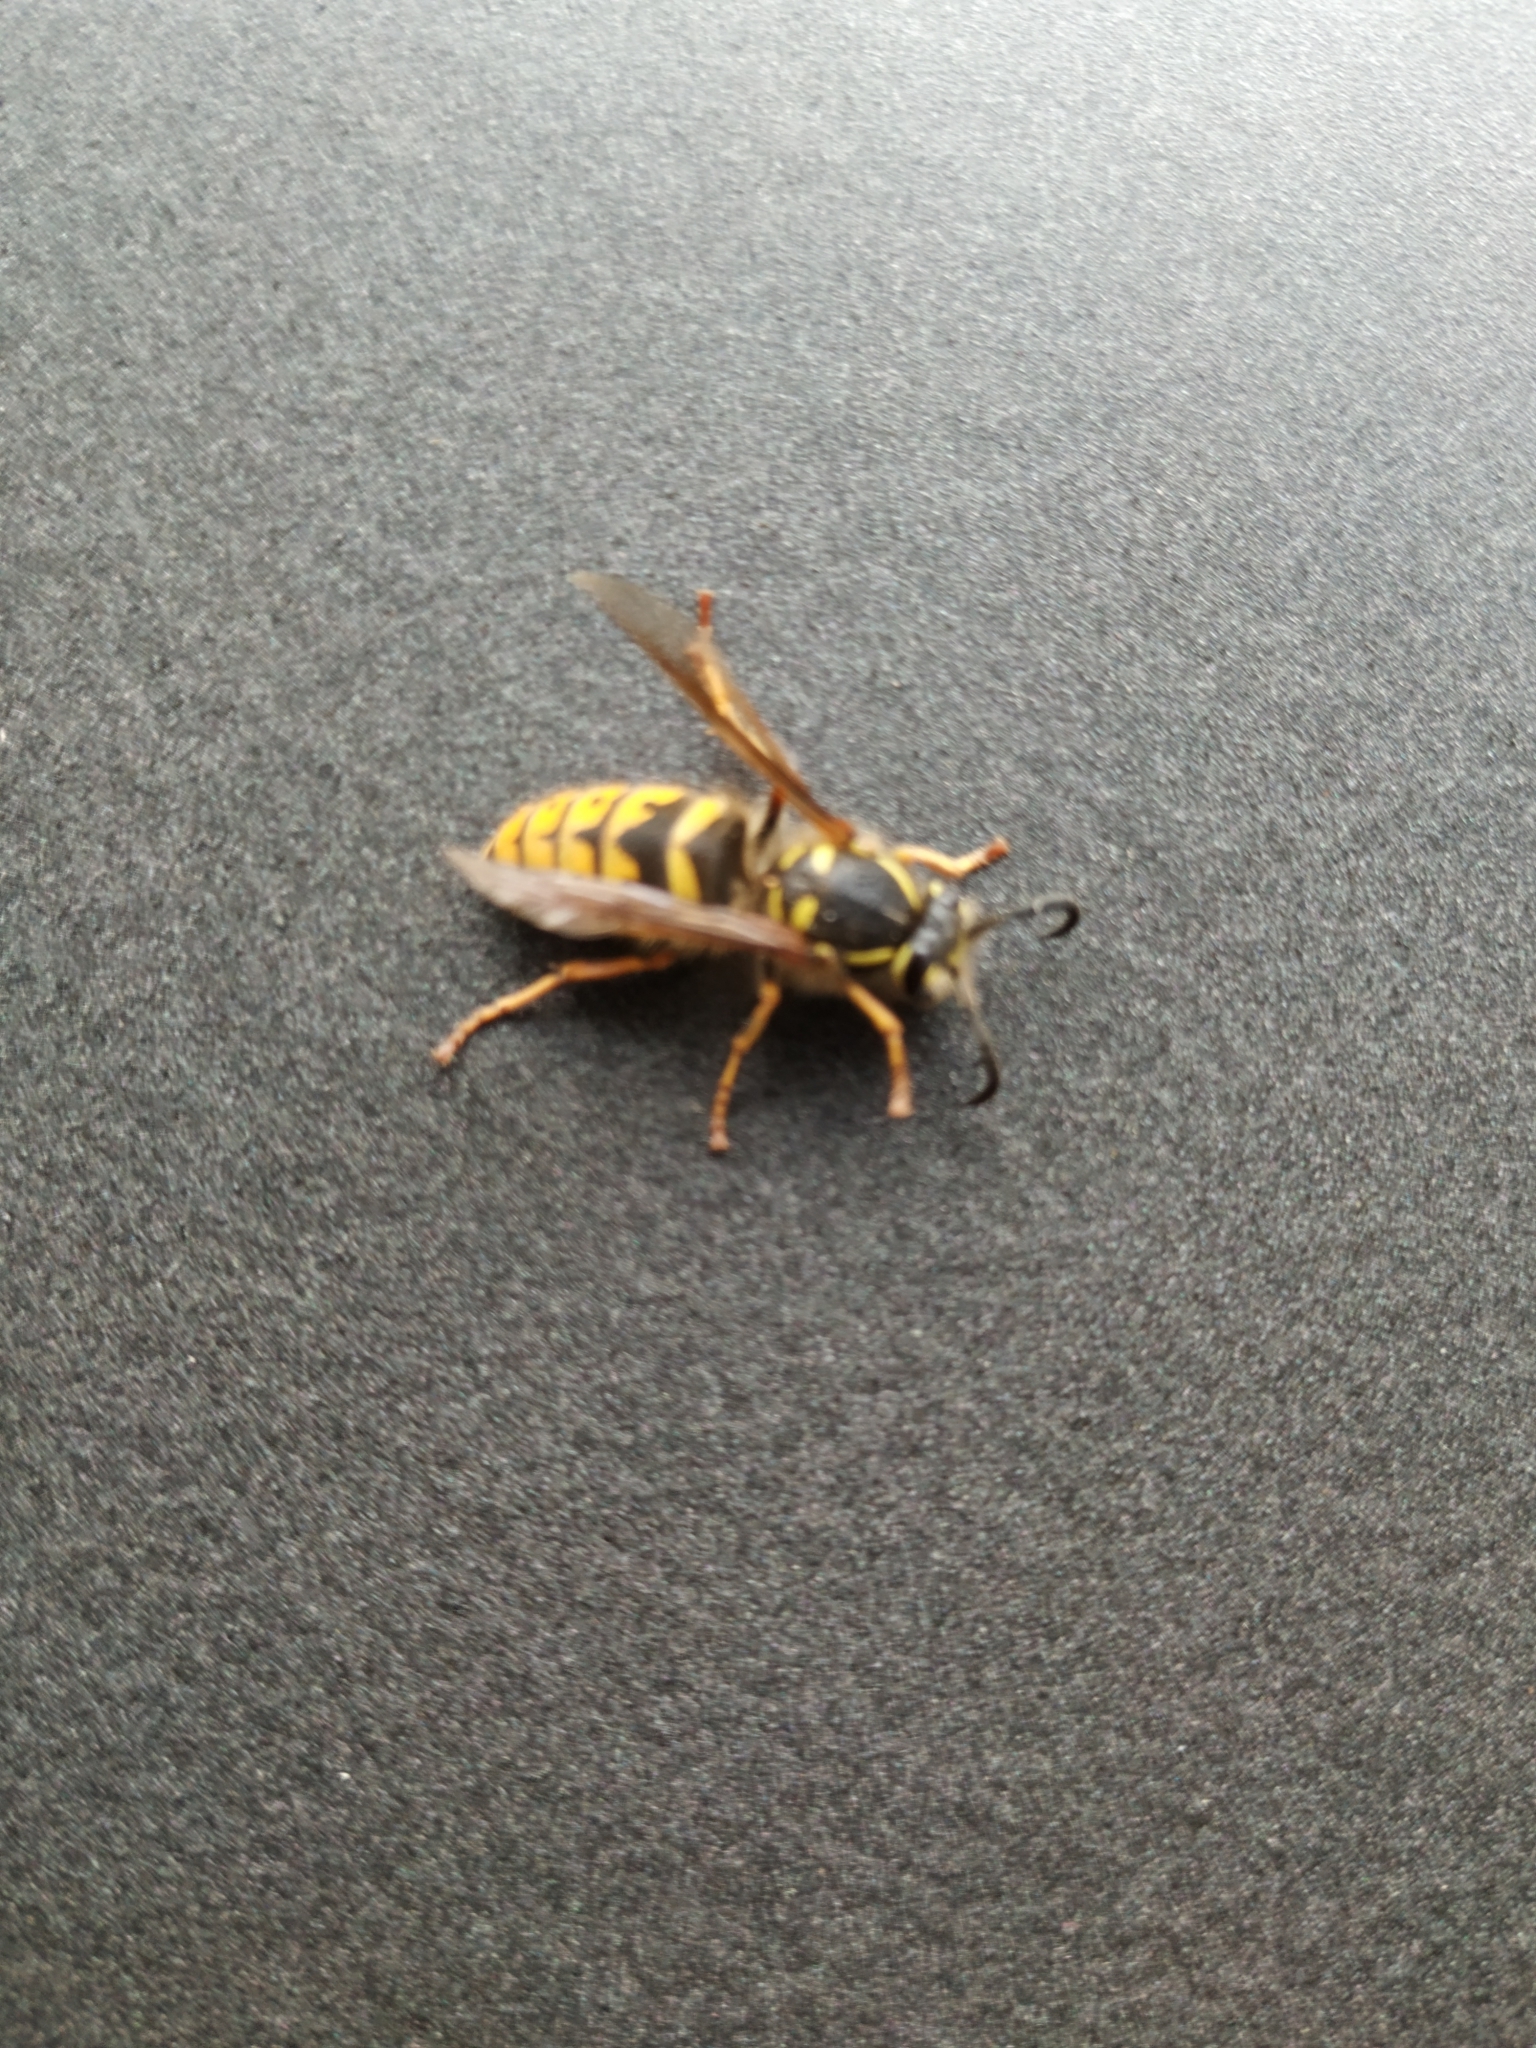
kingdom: Animalia
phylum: Arthropoda
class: Insecta
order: Hymenoptera
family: Vespidae
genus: Vespula
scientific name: Vespula vulgaris
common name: Common wasp
